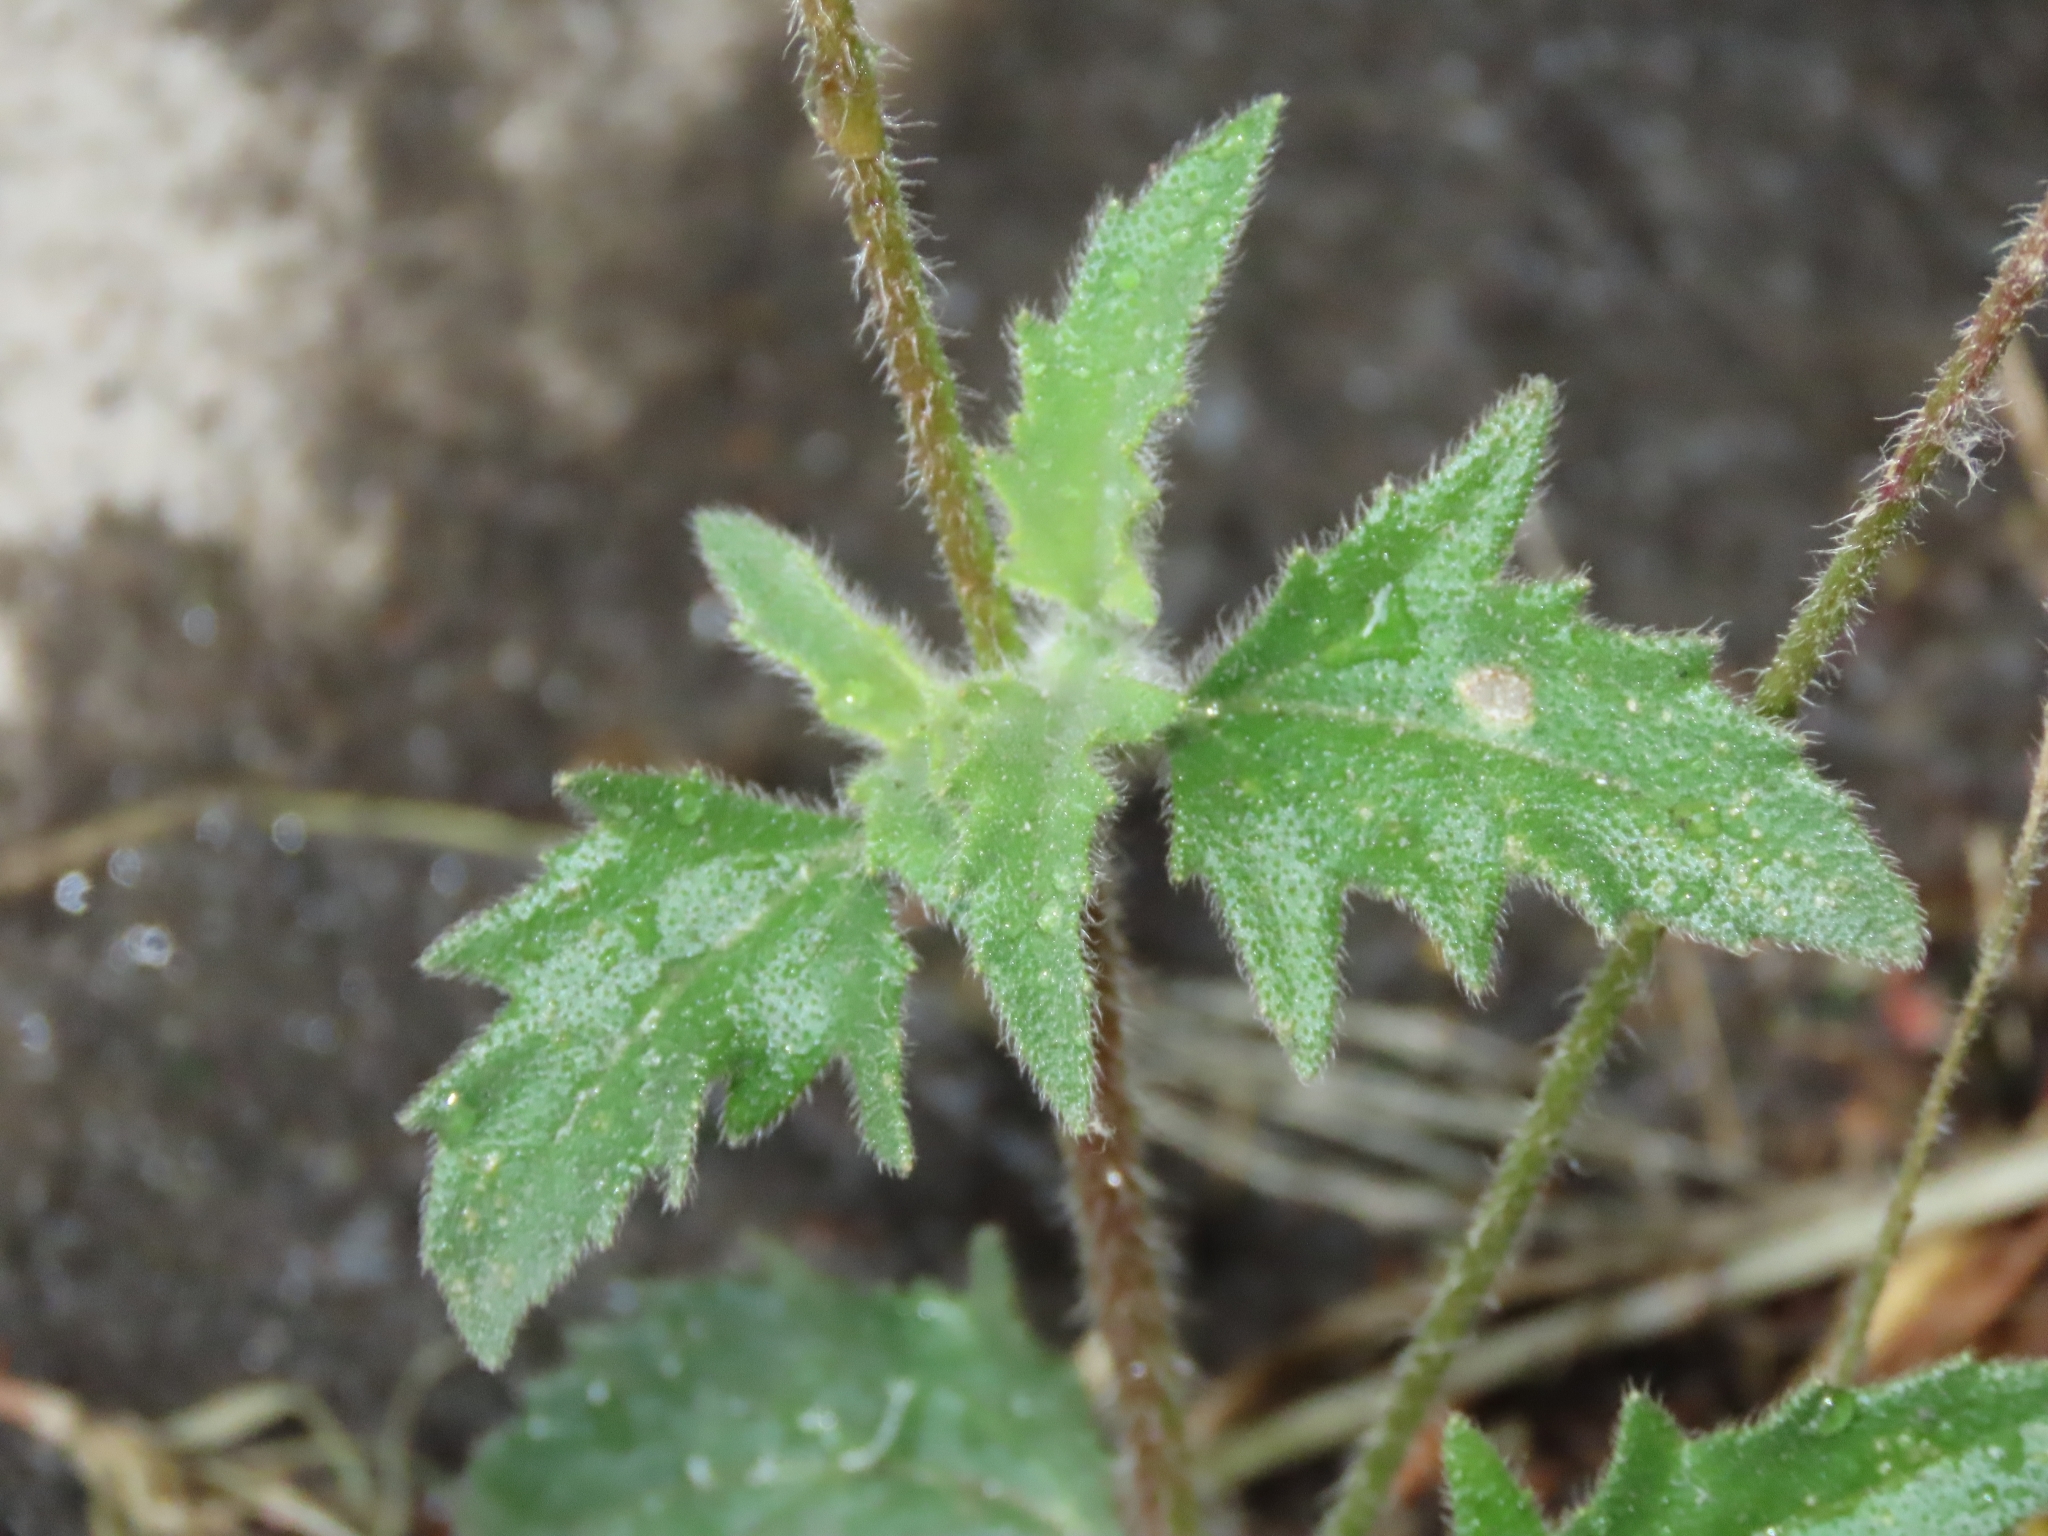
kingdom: Plantae
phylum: Tracheophyta
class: Magnoliopsida
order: Asterales
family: Asteraceae
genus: Tridax
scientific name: Tridax procumbens
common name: Coatbuttons
